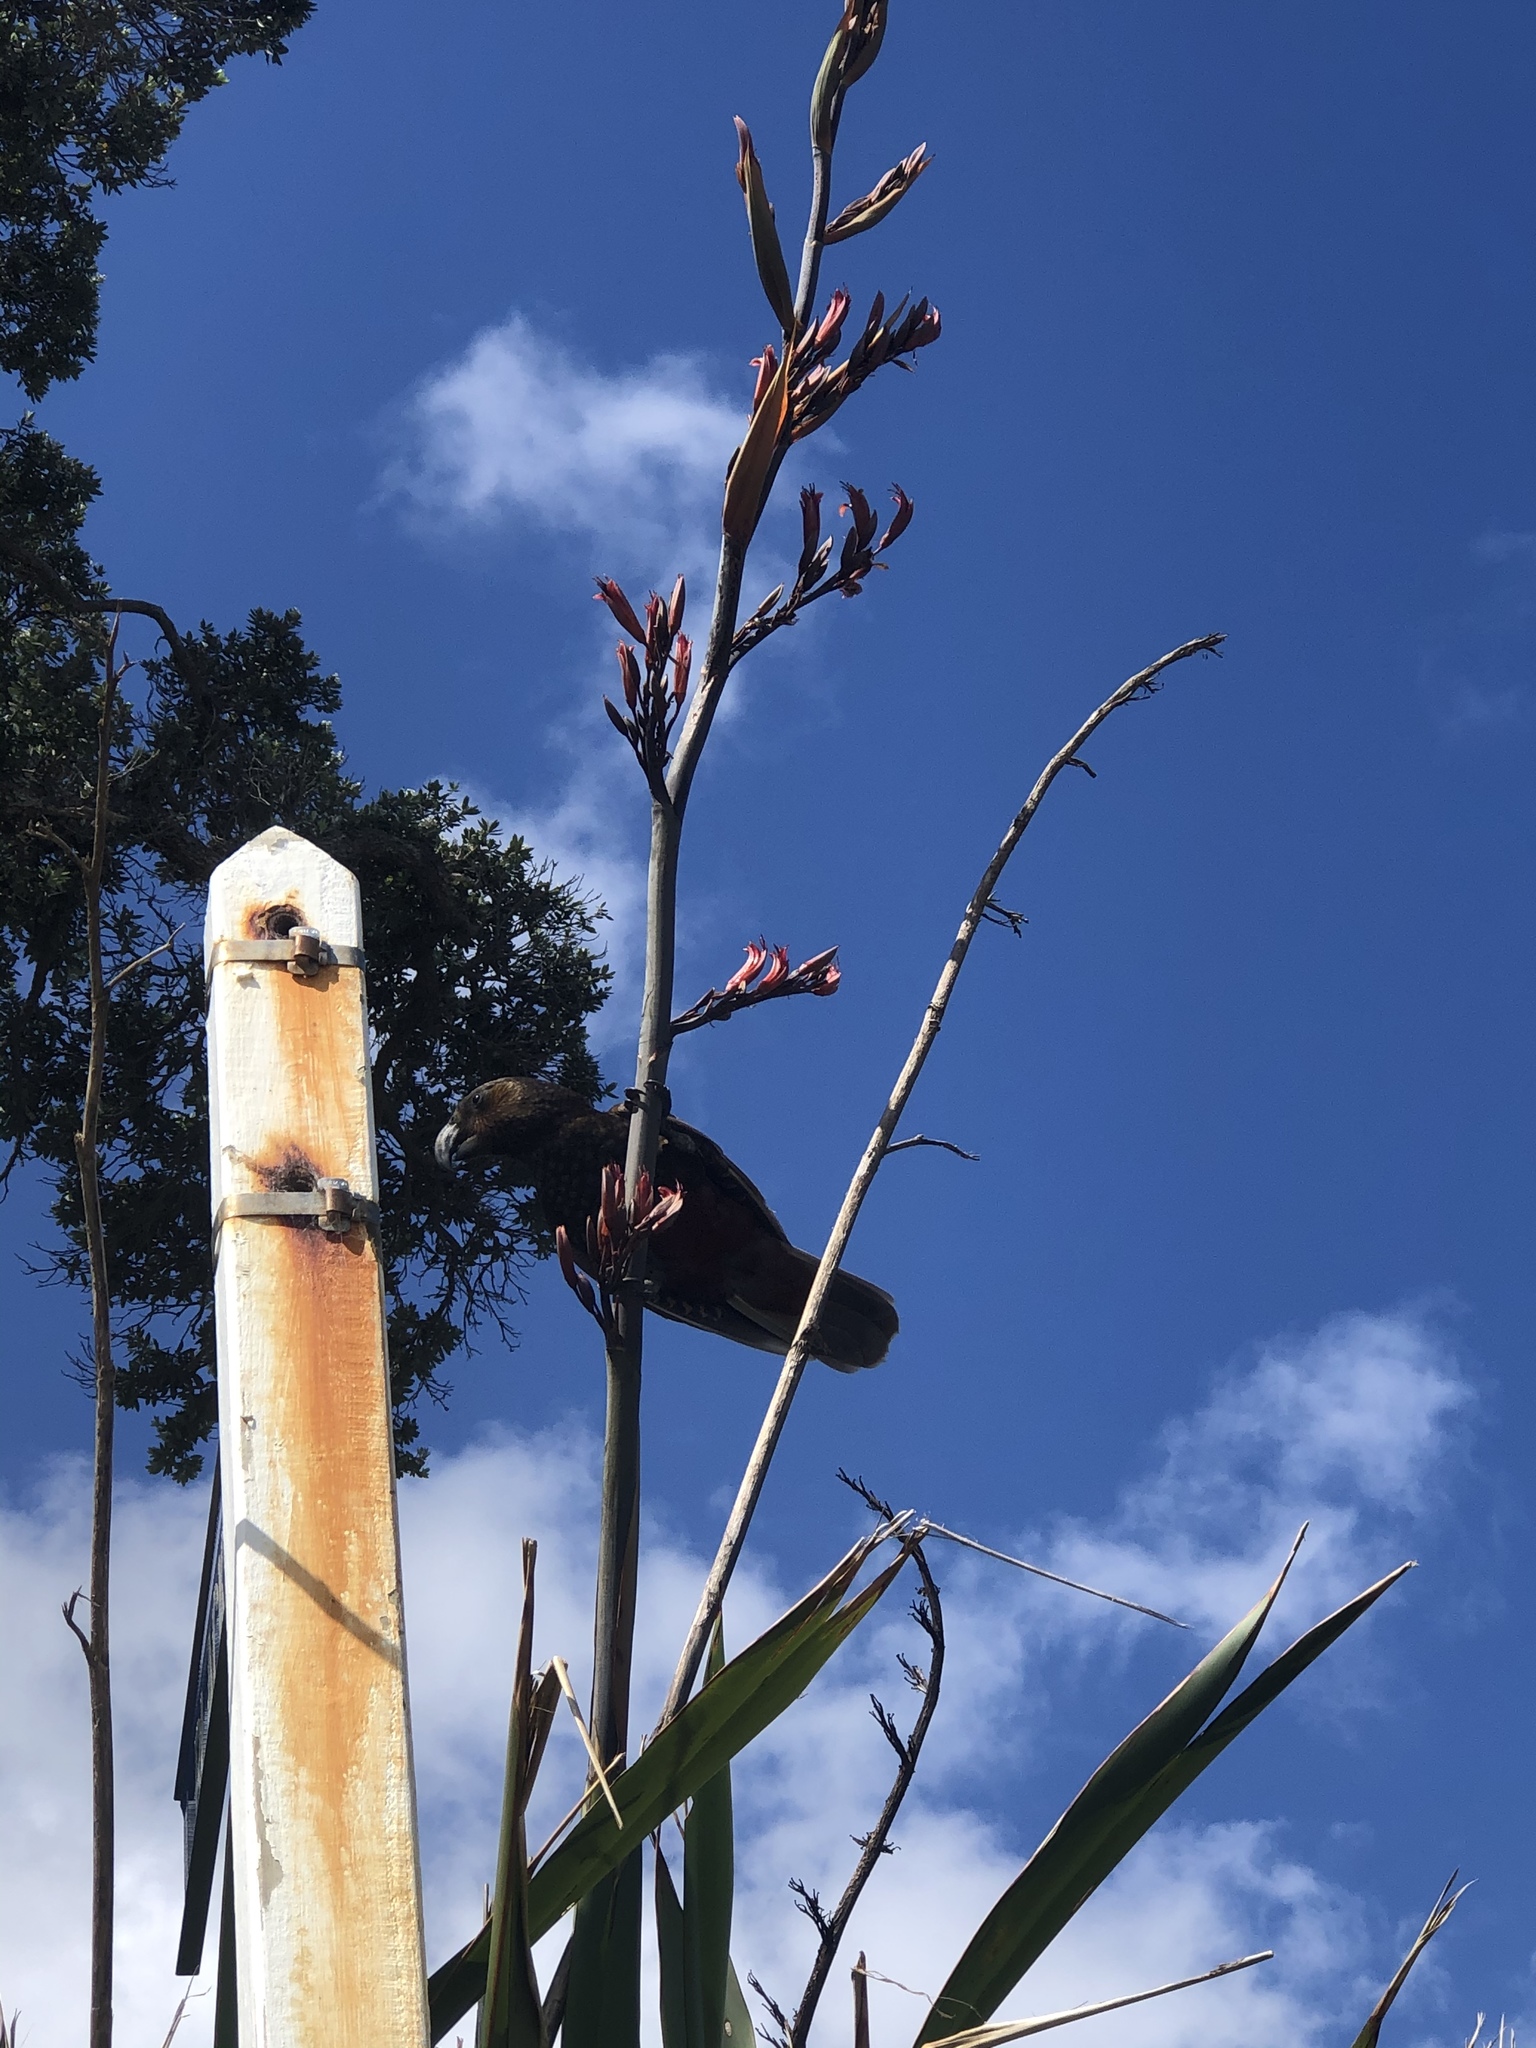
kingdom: Animalia
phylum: Chordata
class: Aves
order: Psittaciformes
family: Psittacidae
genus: Nestor
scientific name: Nestor meridionalis
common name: New zealand kaka
